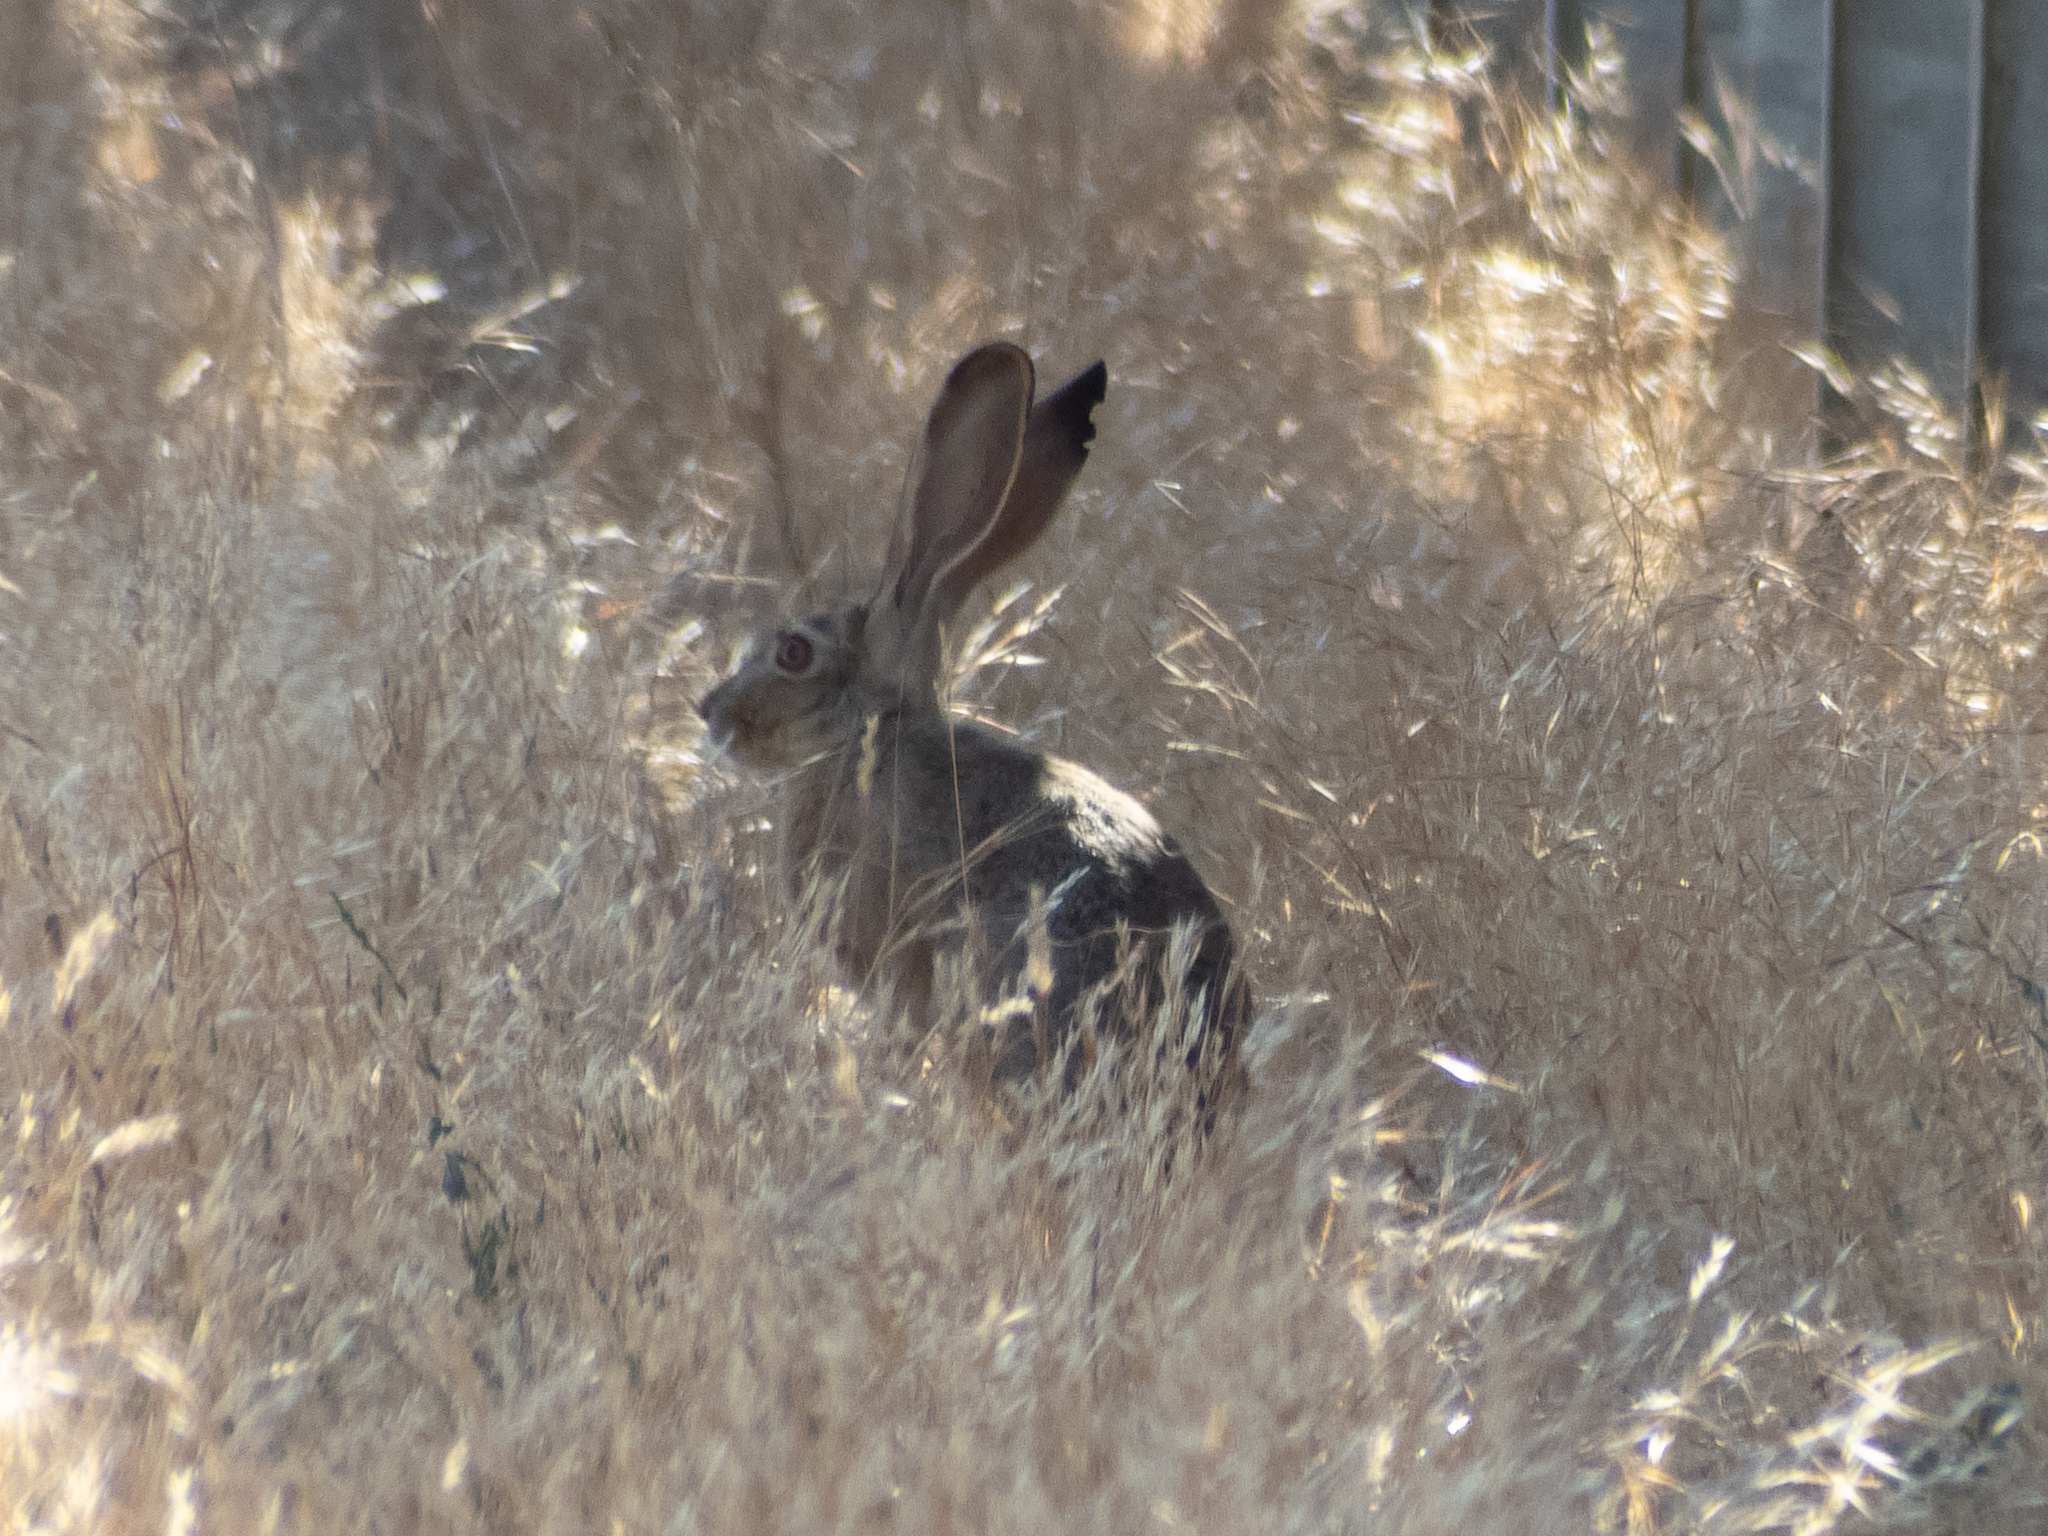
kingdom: Animalia
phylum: Chordata
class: Mammalia
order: Lagomorpha
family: Leporidae
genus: Lepus
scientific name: Lepus californicus
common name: Black-tailed jackrabbit
